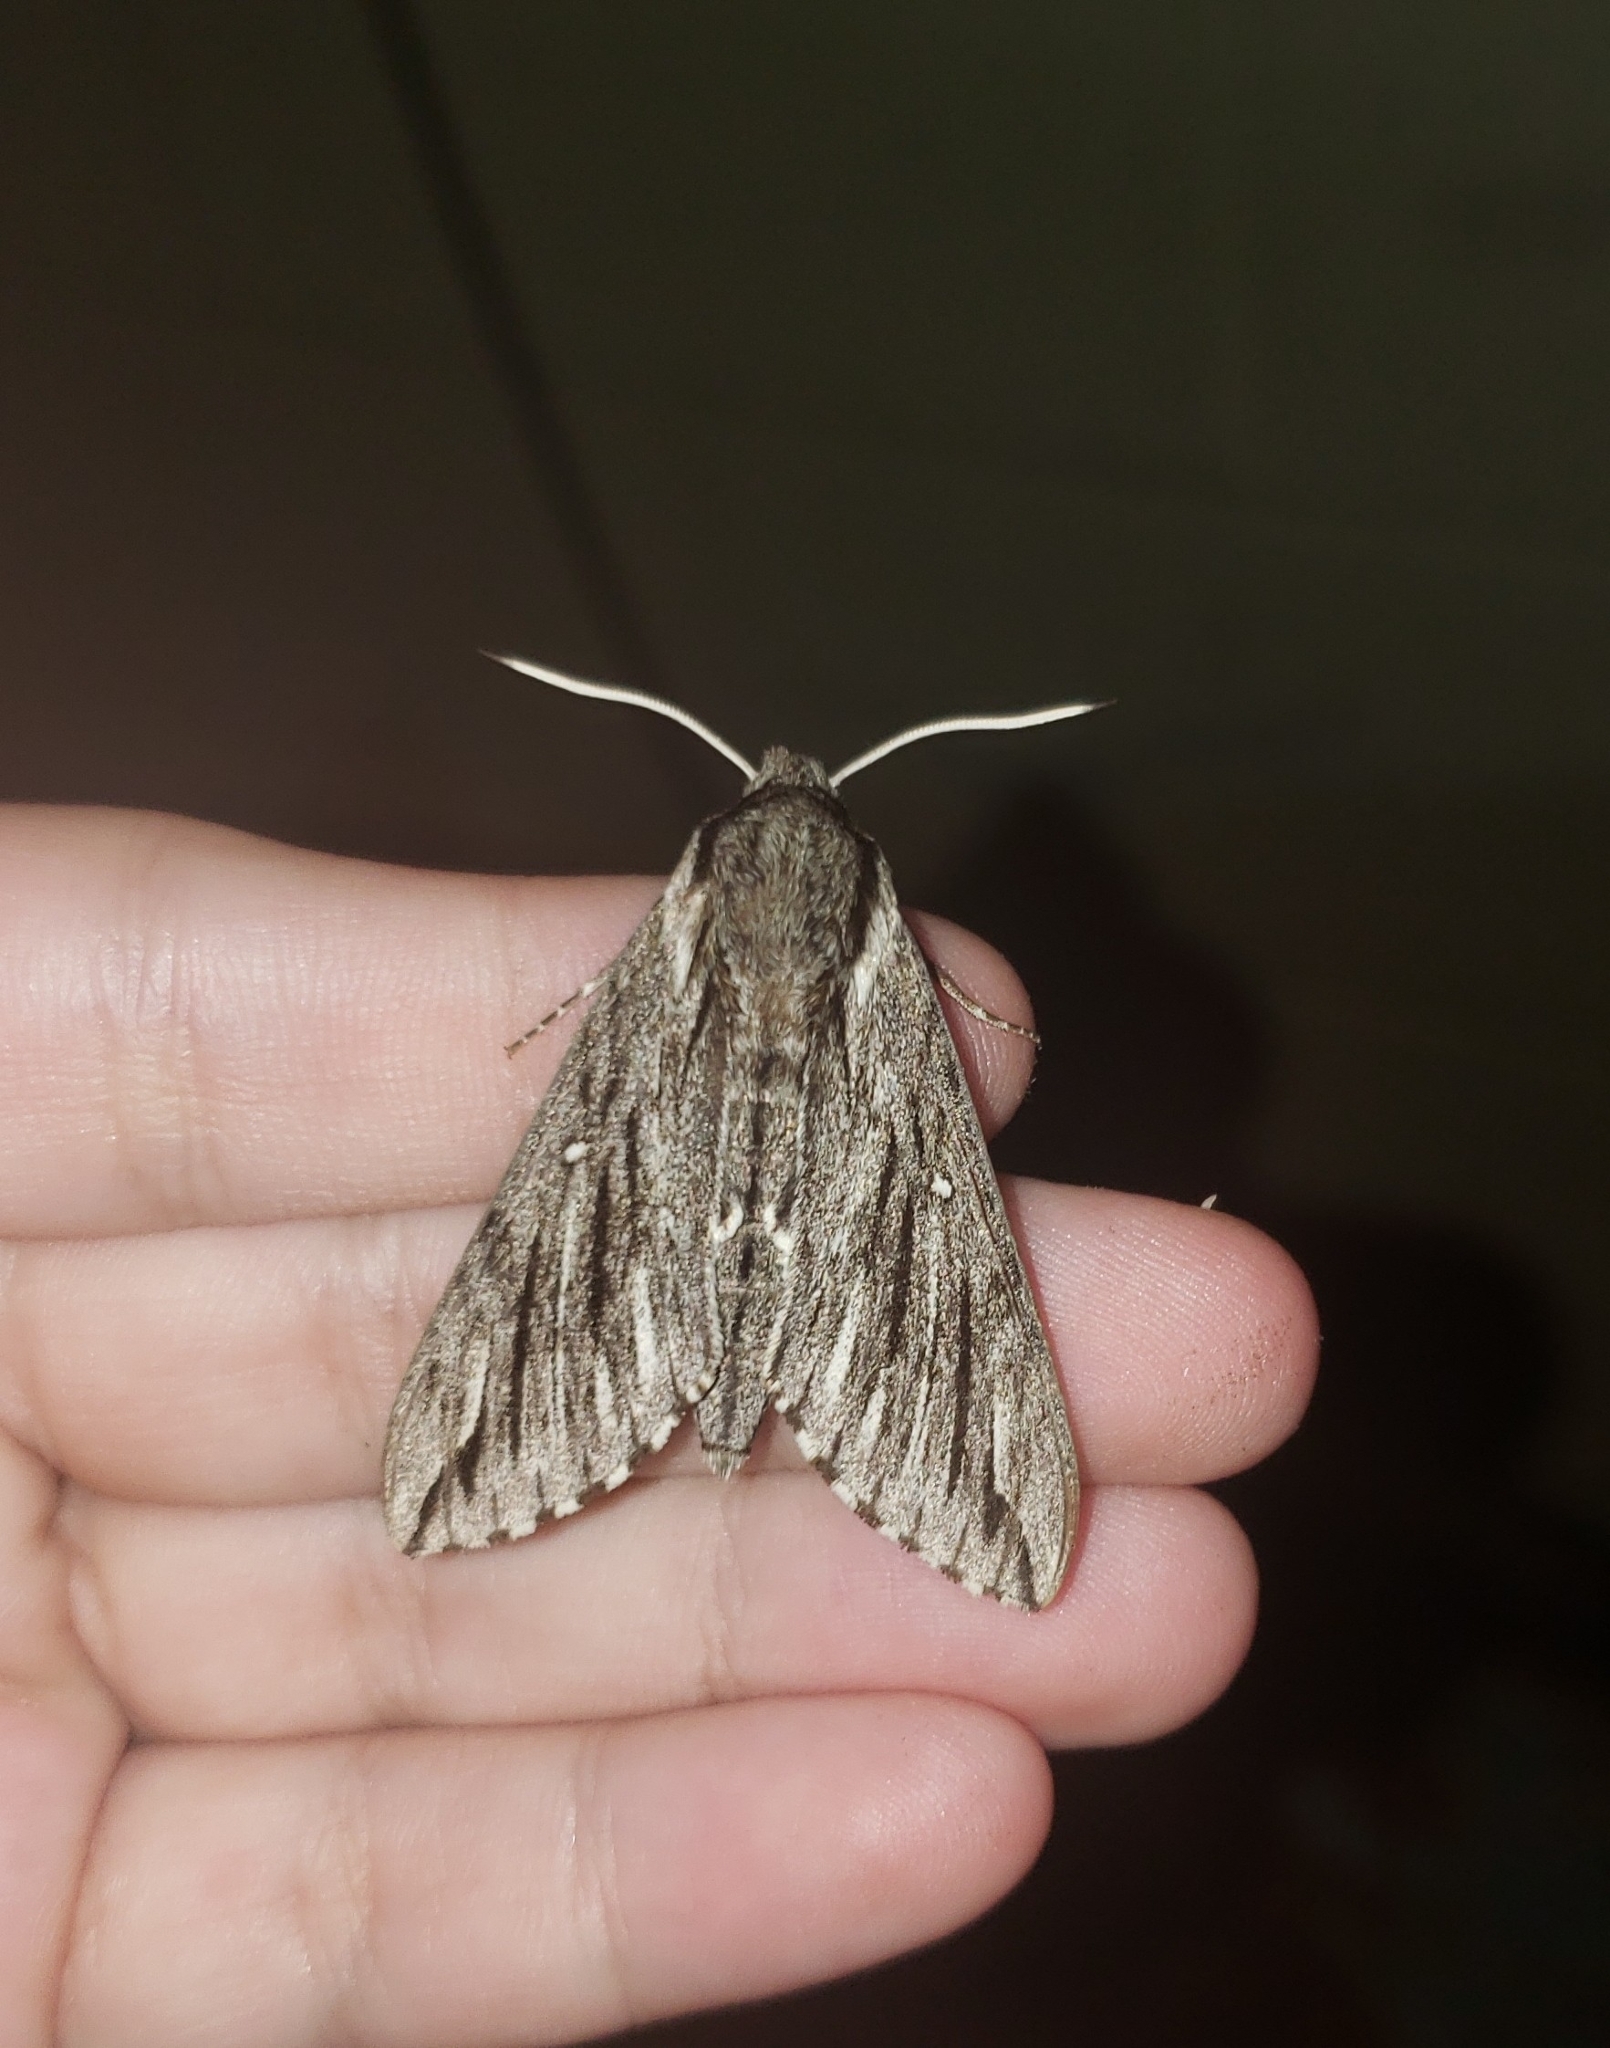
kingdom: Animalia
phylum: Arthropoda
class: Insecta
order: Lepidoptera
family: Sphingidae
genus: Paratrea
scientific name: Paratrea plebeja
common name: Plebian sphinx
